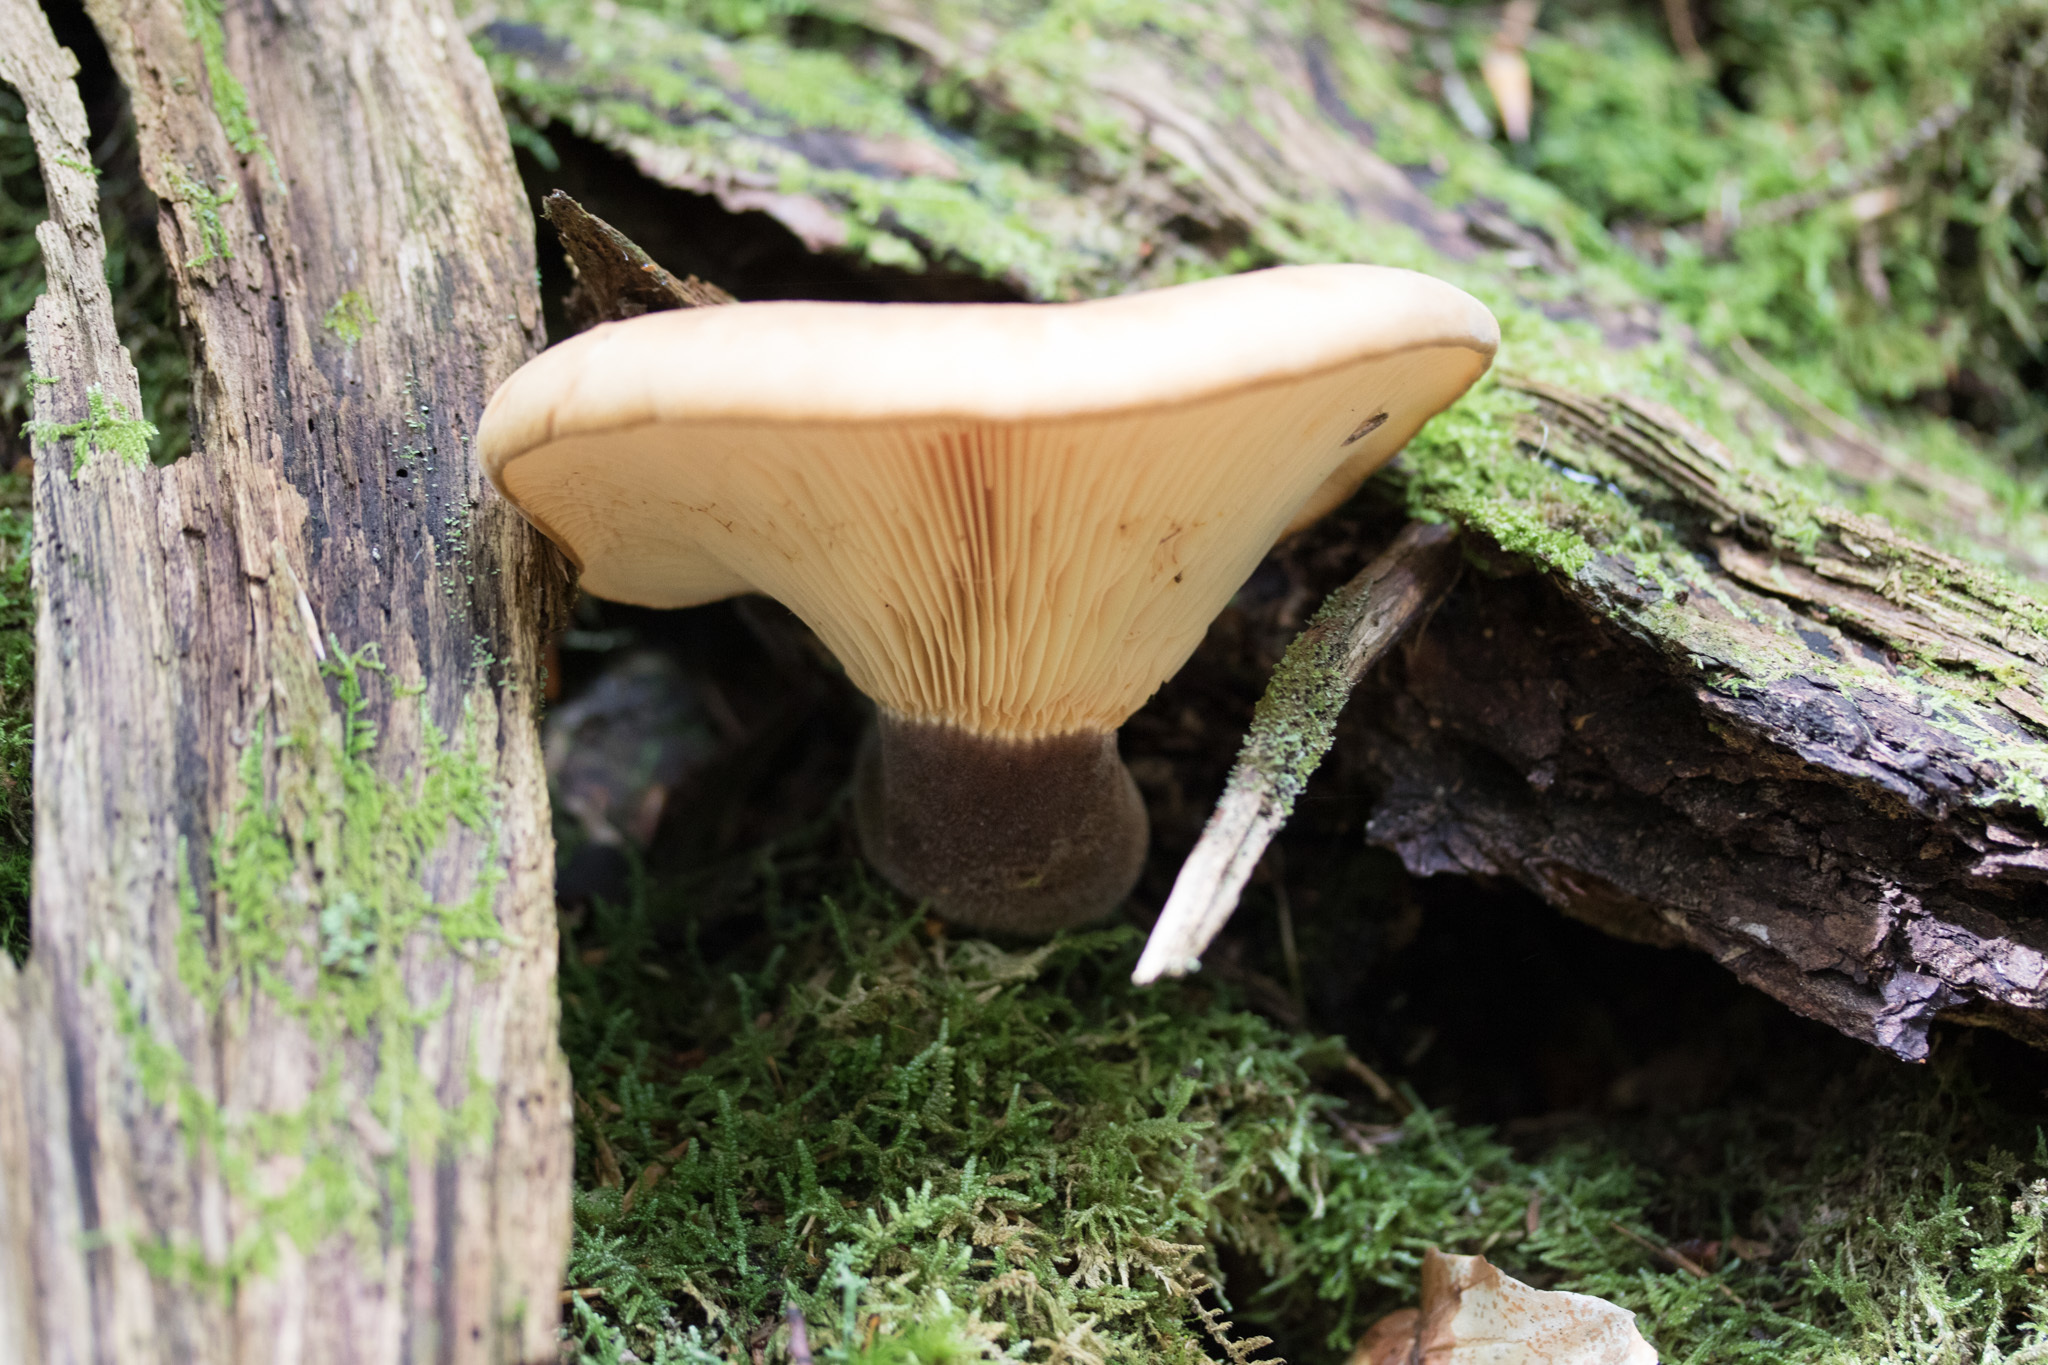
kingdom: Fungi
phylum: Basidiomycota
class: Agaricomycetes
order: Boletales
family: Tapinellaceae
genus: Tapinella
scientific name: Tapinella atrotomentosa
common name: Velvet rollrim
